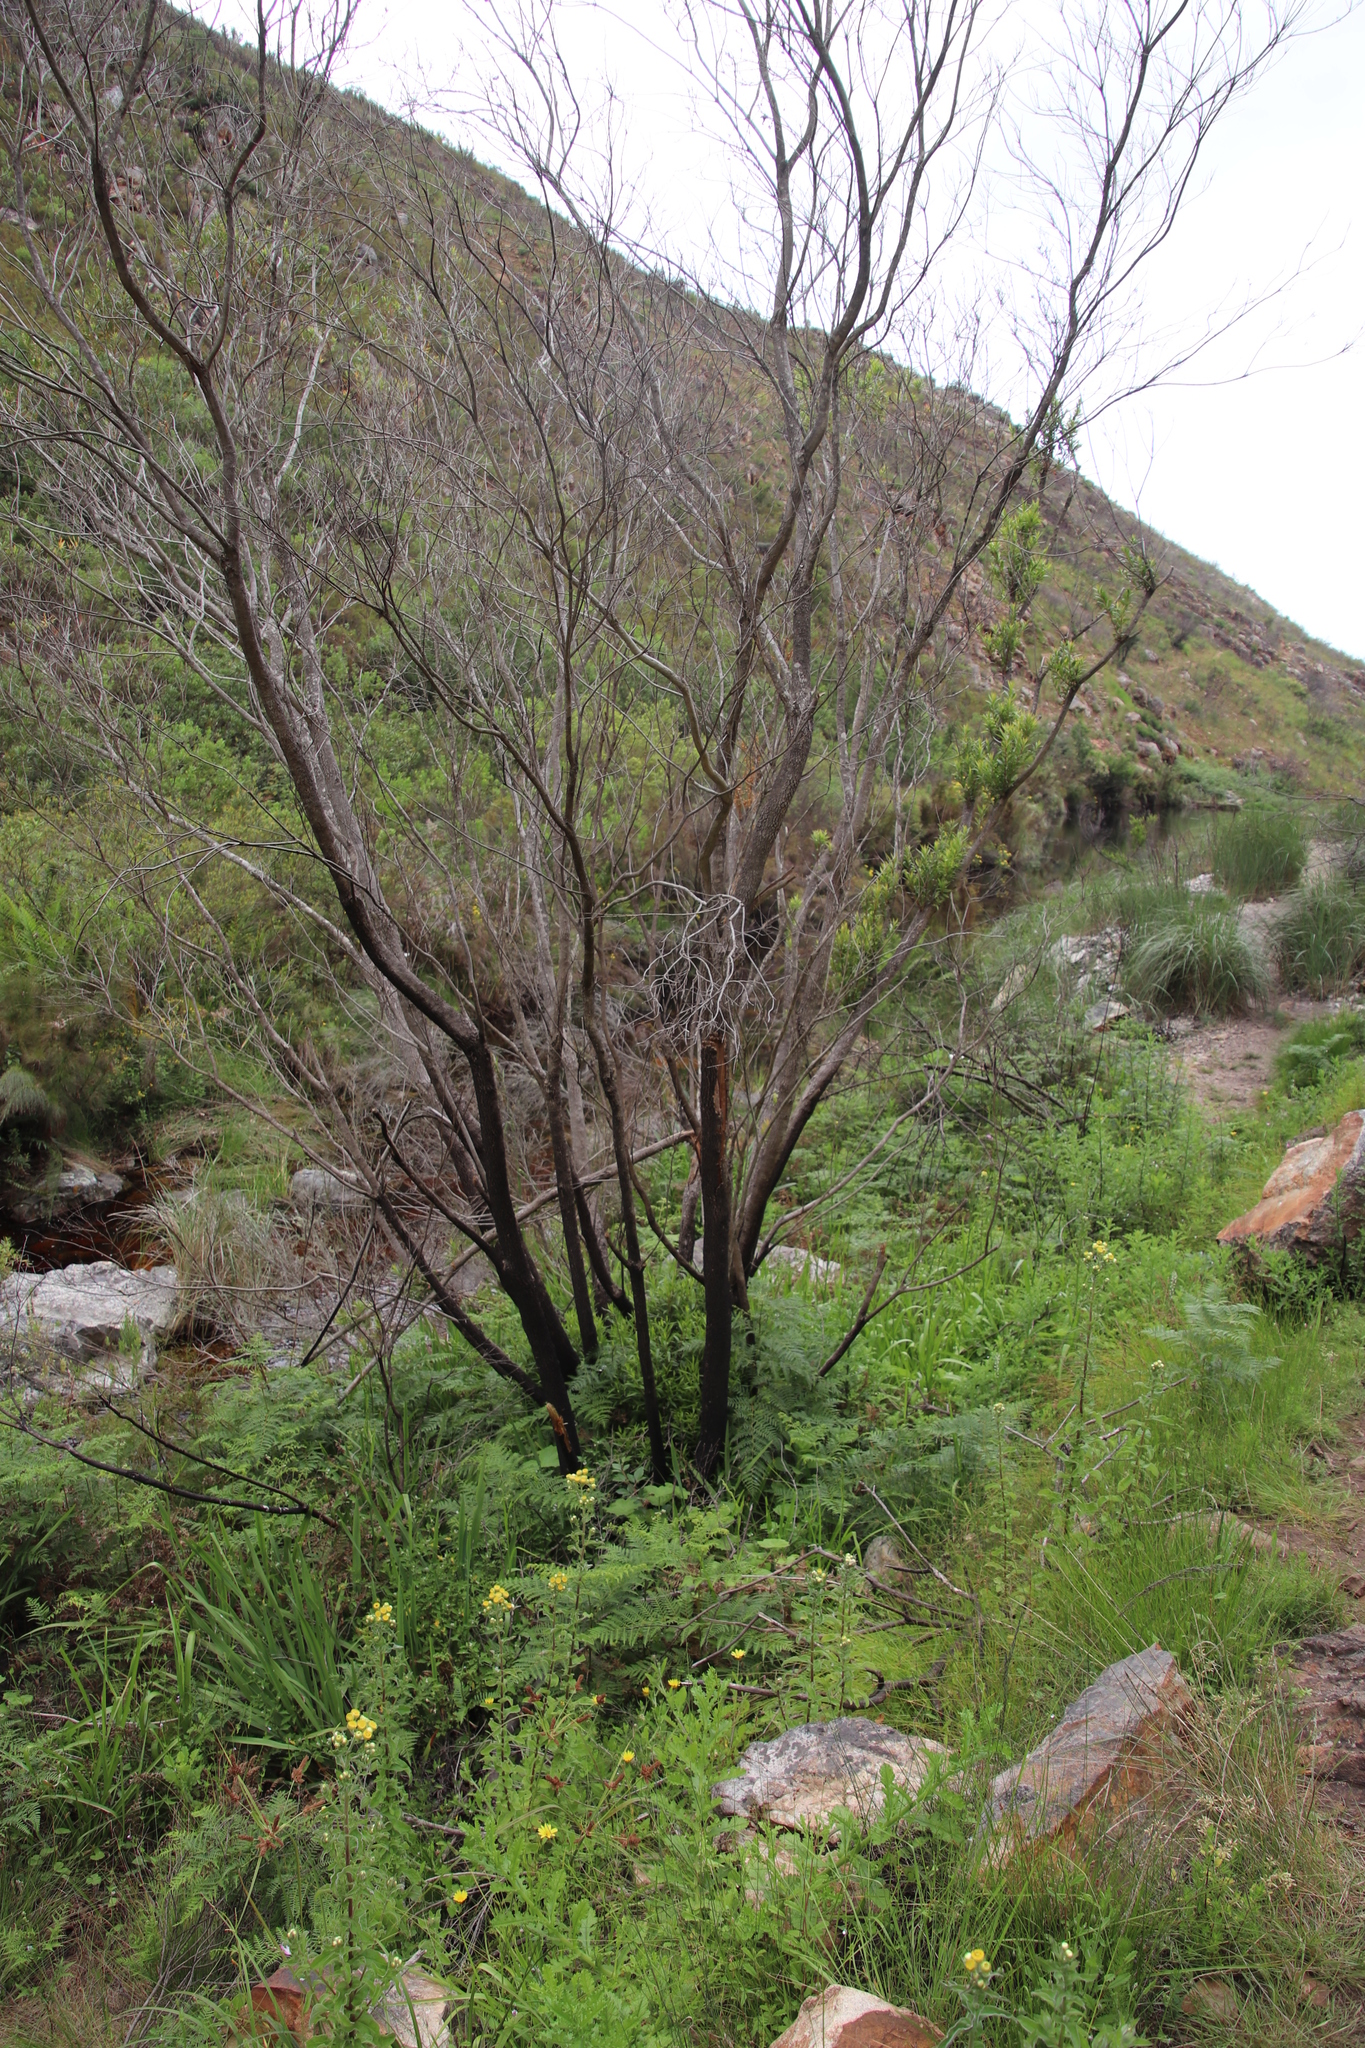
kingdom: Plantae
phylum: Tracheophyta
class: Magnoliopsida
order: Myrtales
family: Myrtaceae
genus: Callistemon
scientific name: Callistemon lanceolatus
